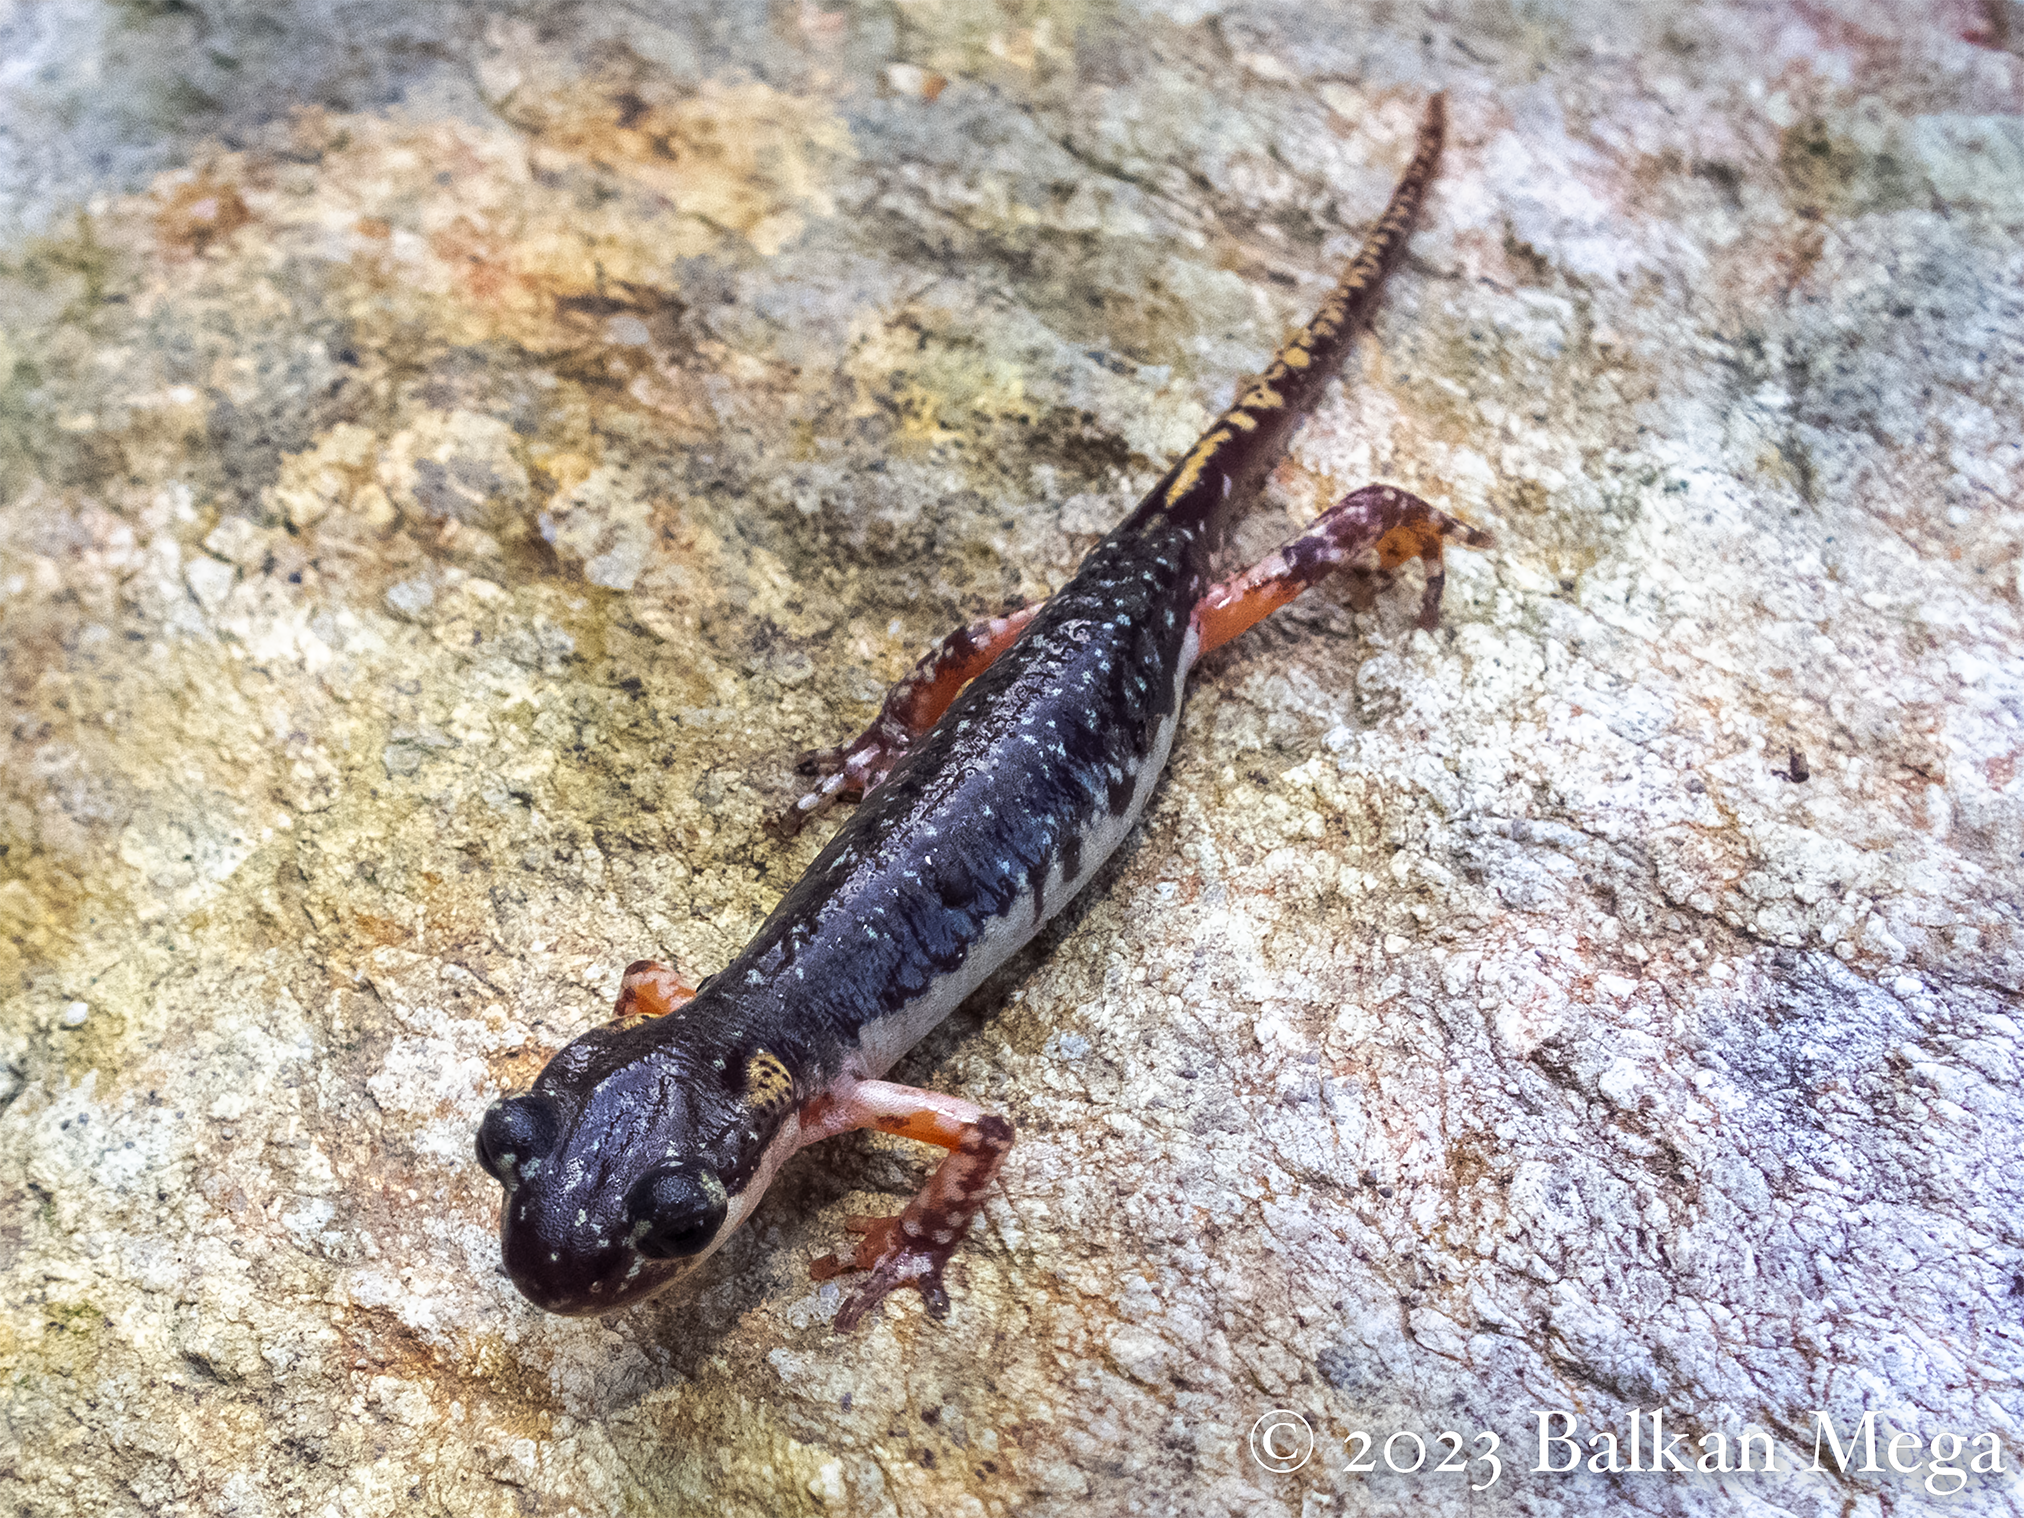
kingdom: Animalia
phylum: Chordata
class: Amphibia
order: Caudata
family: Salamandridae
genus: Lyciasalamandra
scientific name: Lyciasalamandra atifi
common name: Atif's salamander
